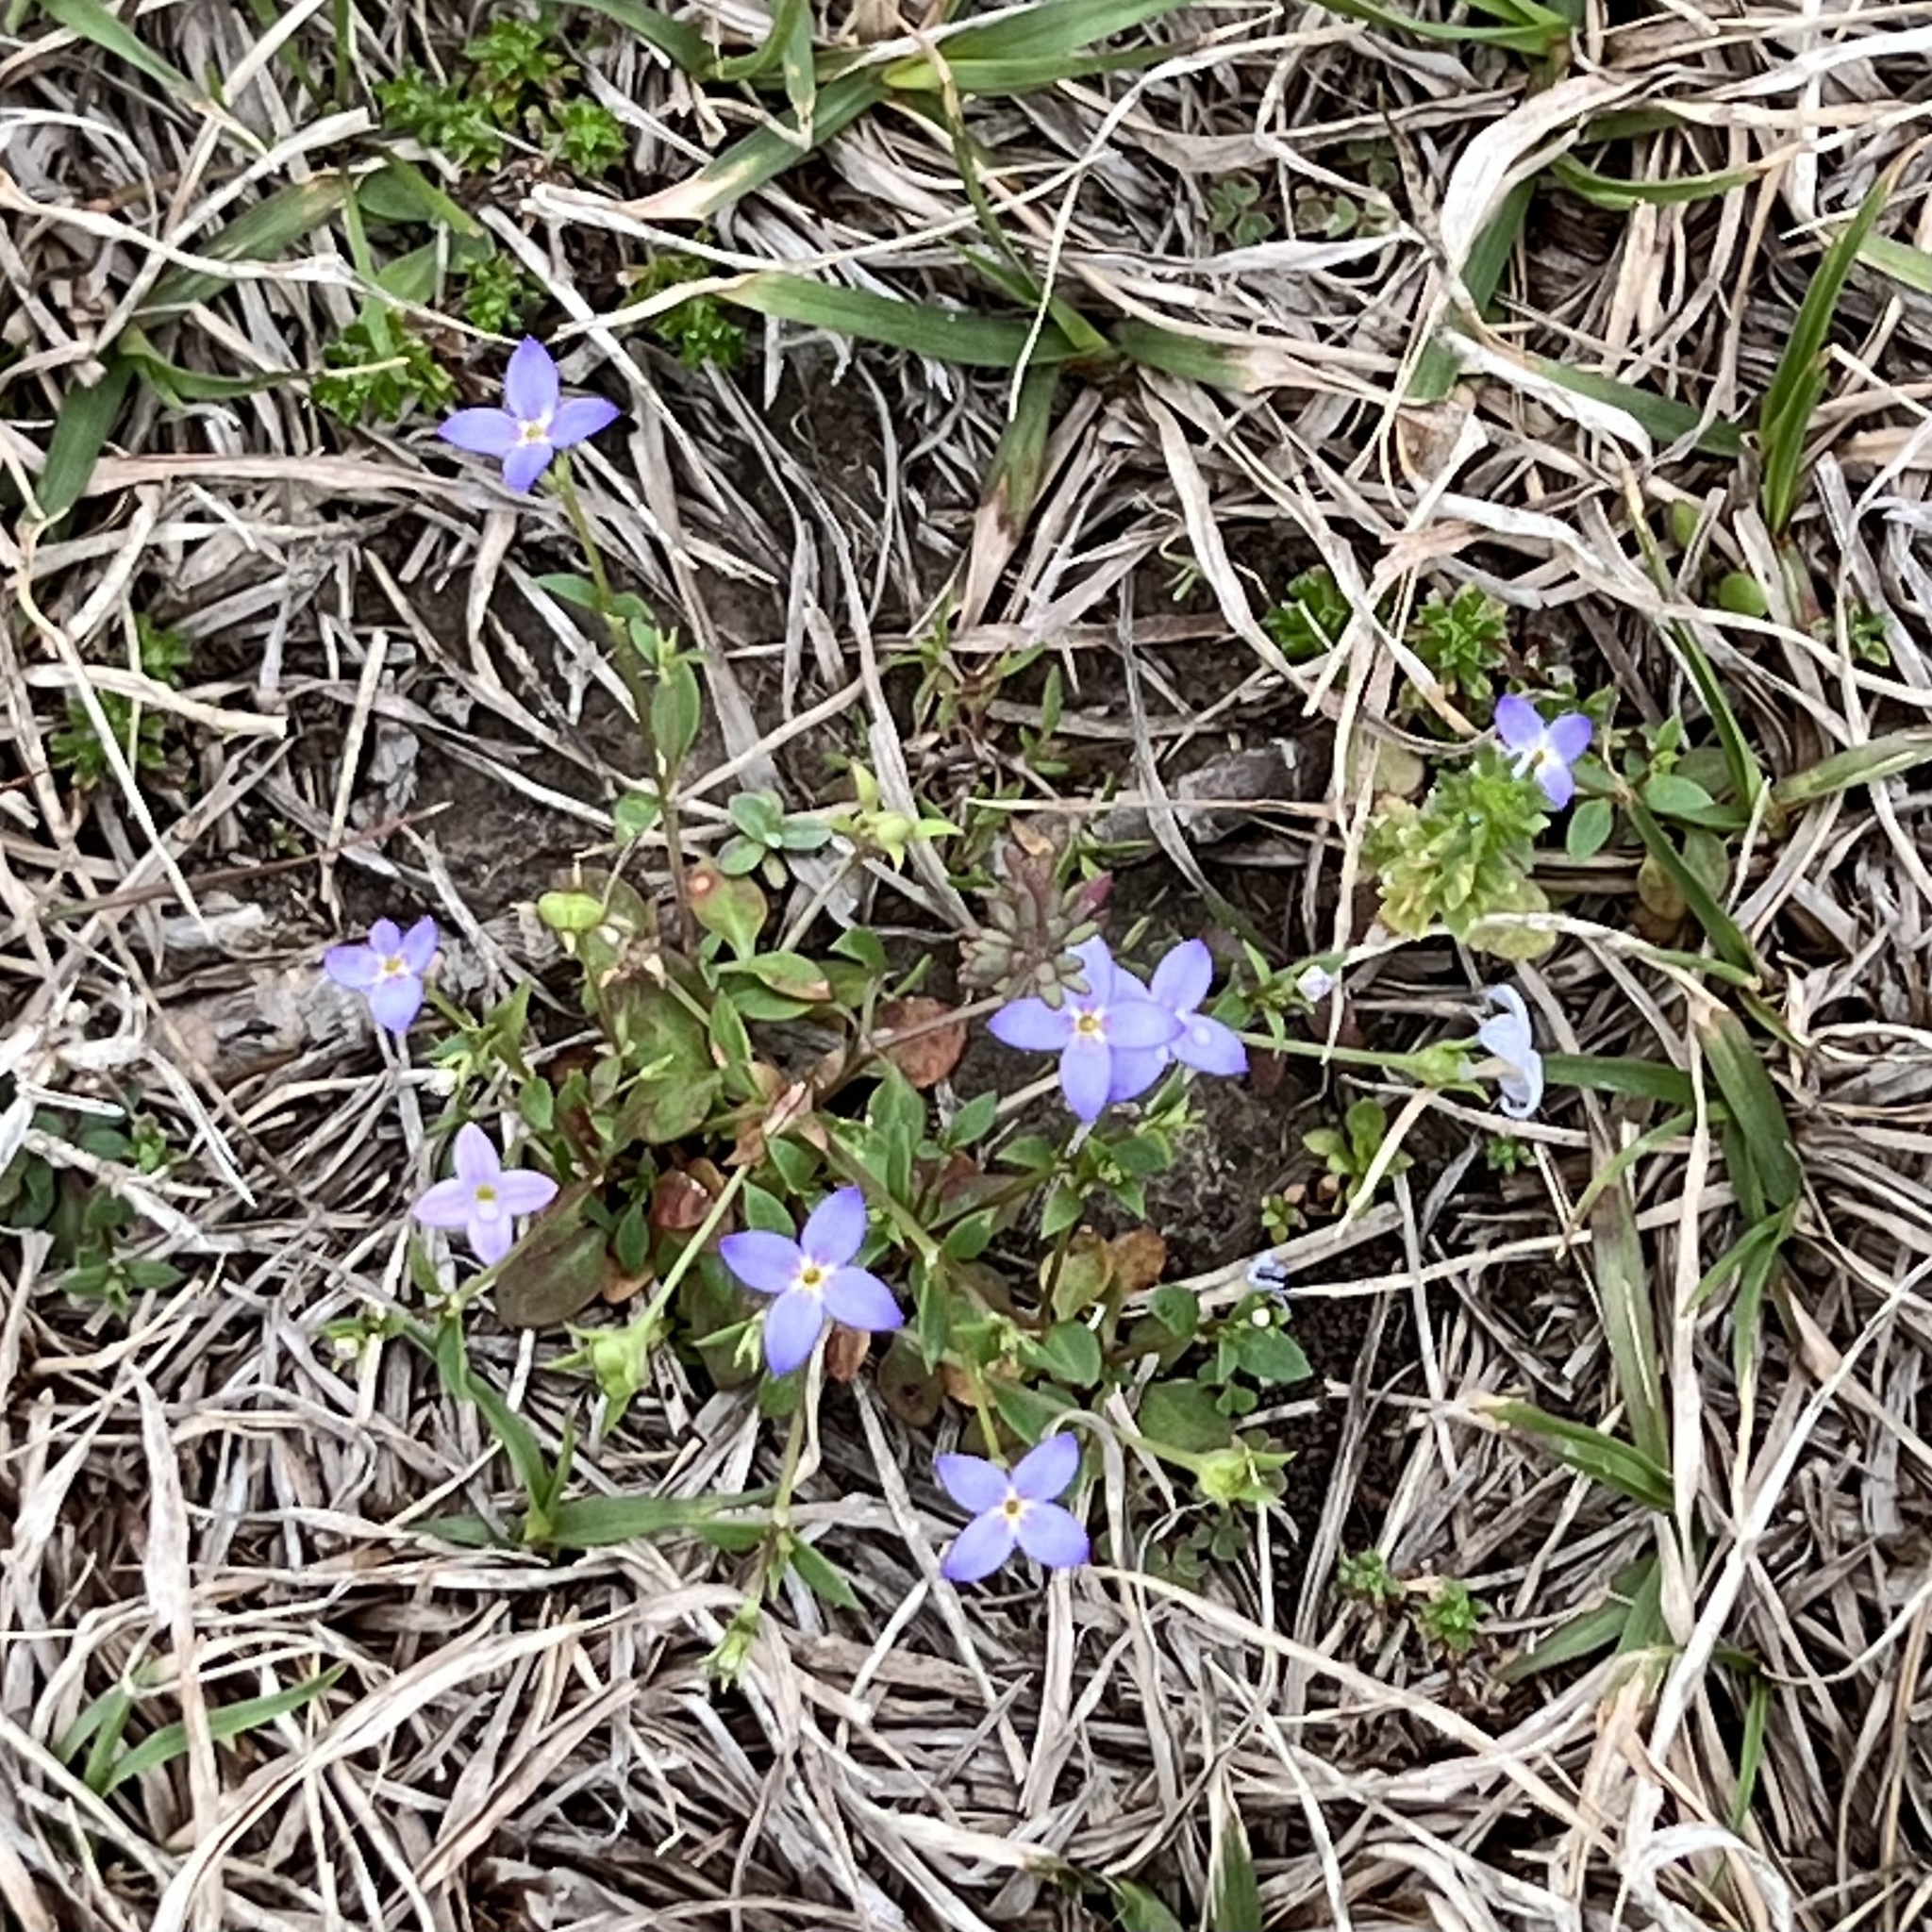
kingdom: Plantae
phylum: Tracheophyta
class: Magnoliopsida
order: Gentianales
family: Rubiaceae
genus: Houstonia
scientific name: Houstonia pusilla
